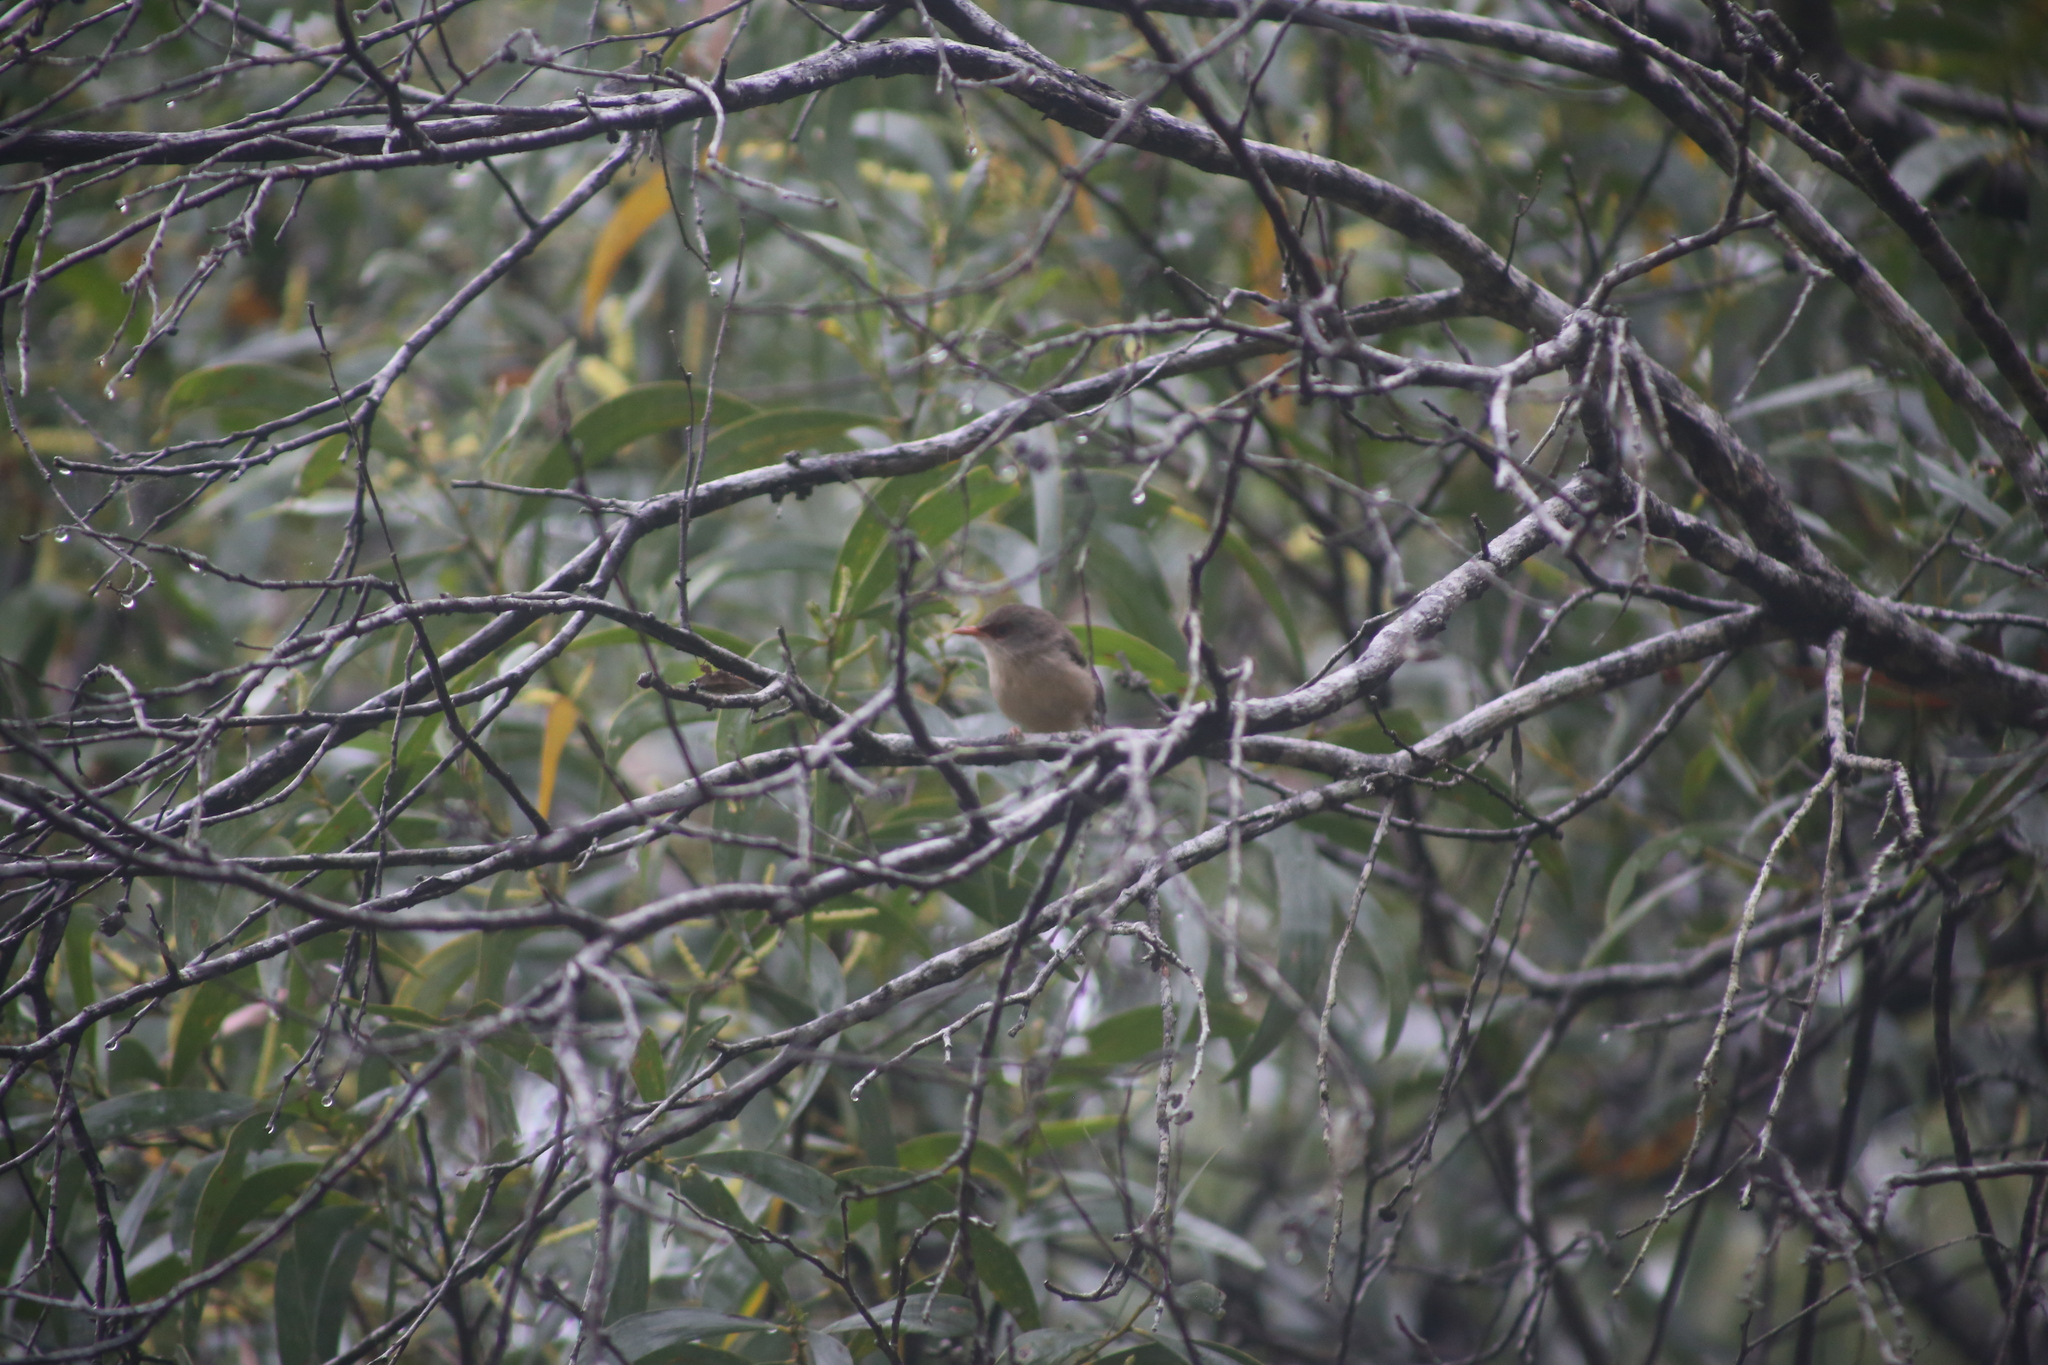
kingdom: Animalia
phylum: Chordata
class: Aves
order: Passeriformes
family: Maluridae
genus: Malurus
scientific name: Malurus lamberti
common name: Variegated fairywren
